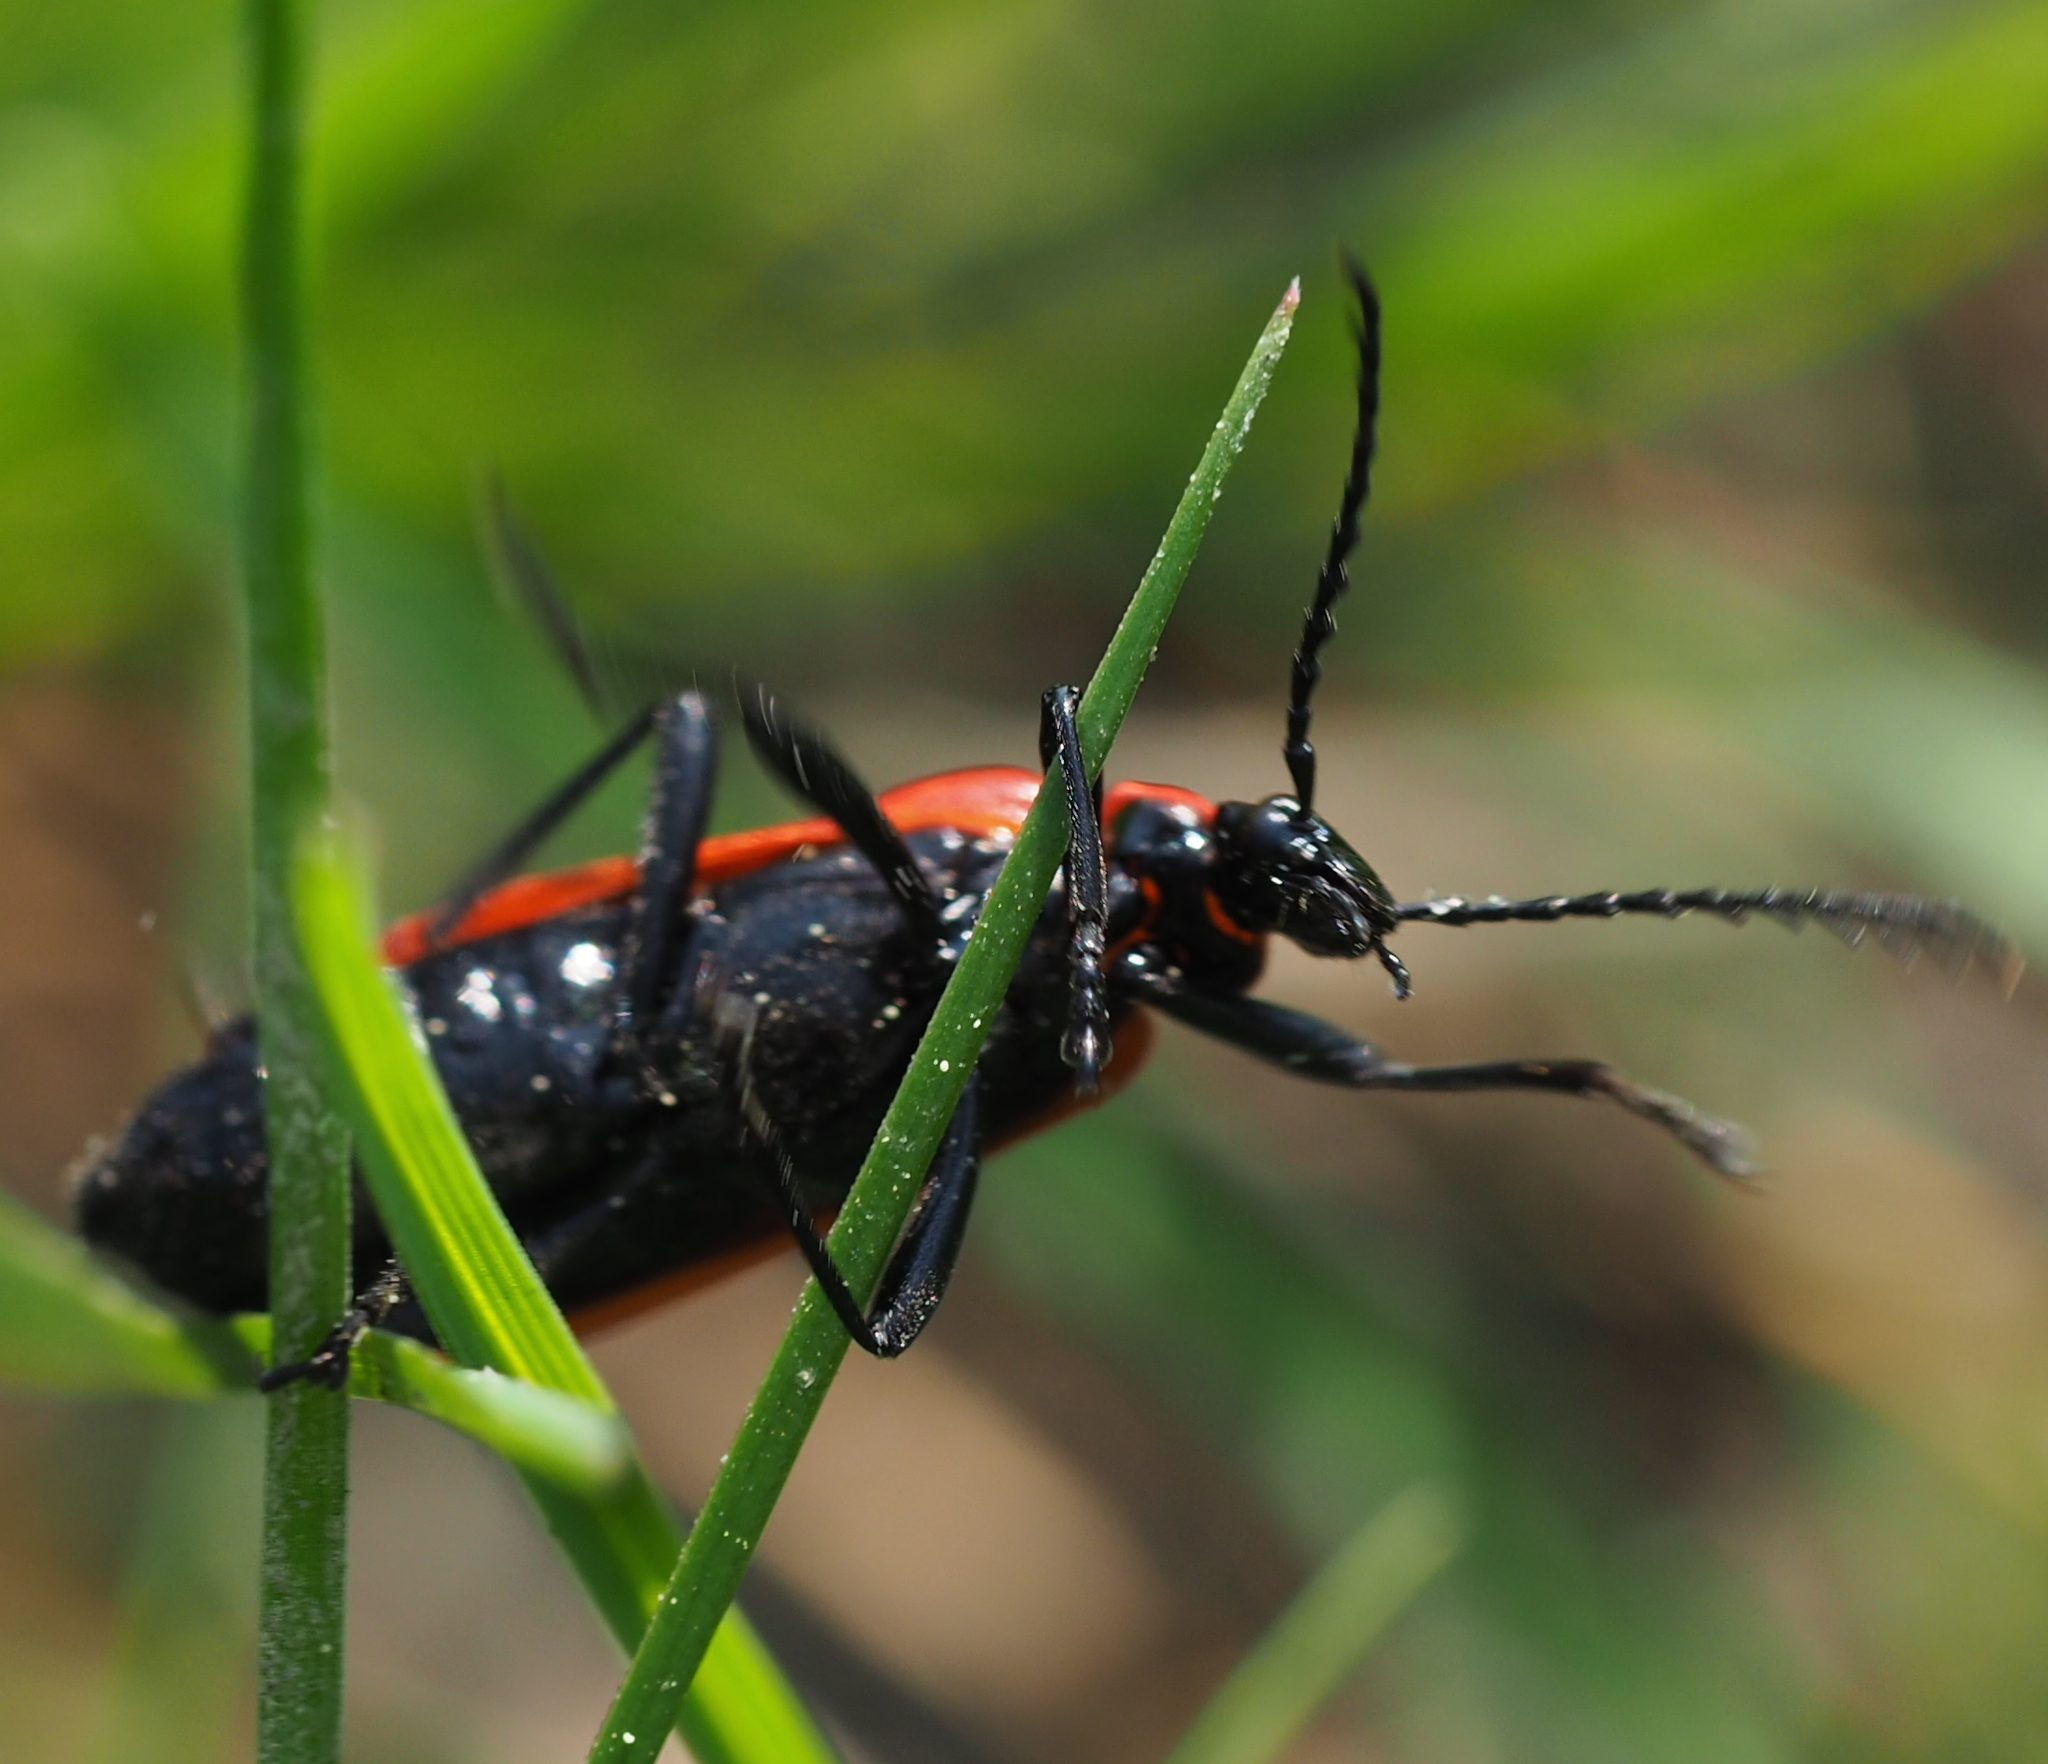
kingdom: Animalia
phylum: Arthropoda
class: Insecta
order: Coleoptera
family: Pyrochroidae
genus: Pyrochroa
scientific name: Pyrochroa coccinea
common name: Black-headed cardinal beetle
